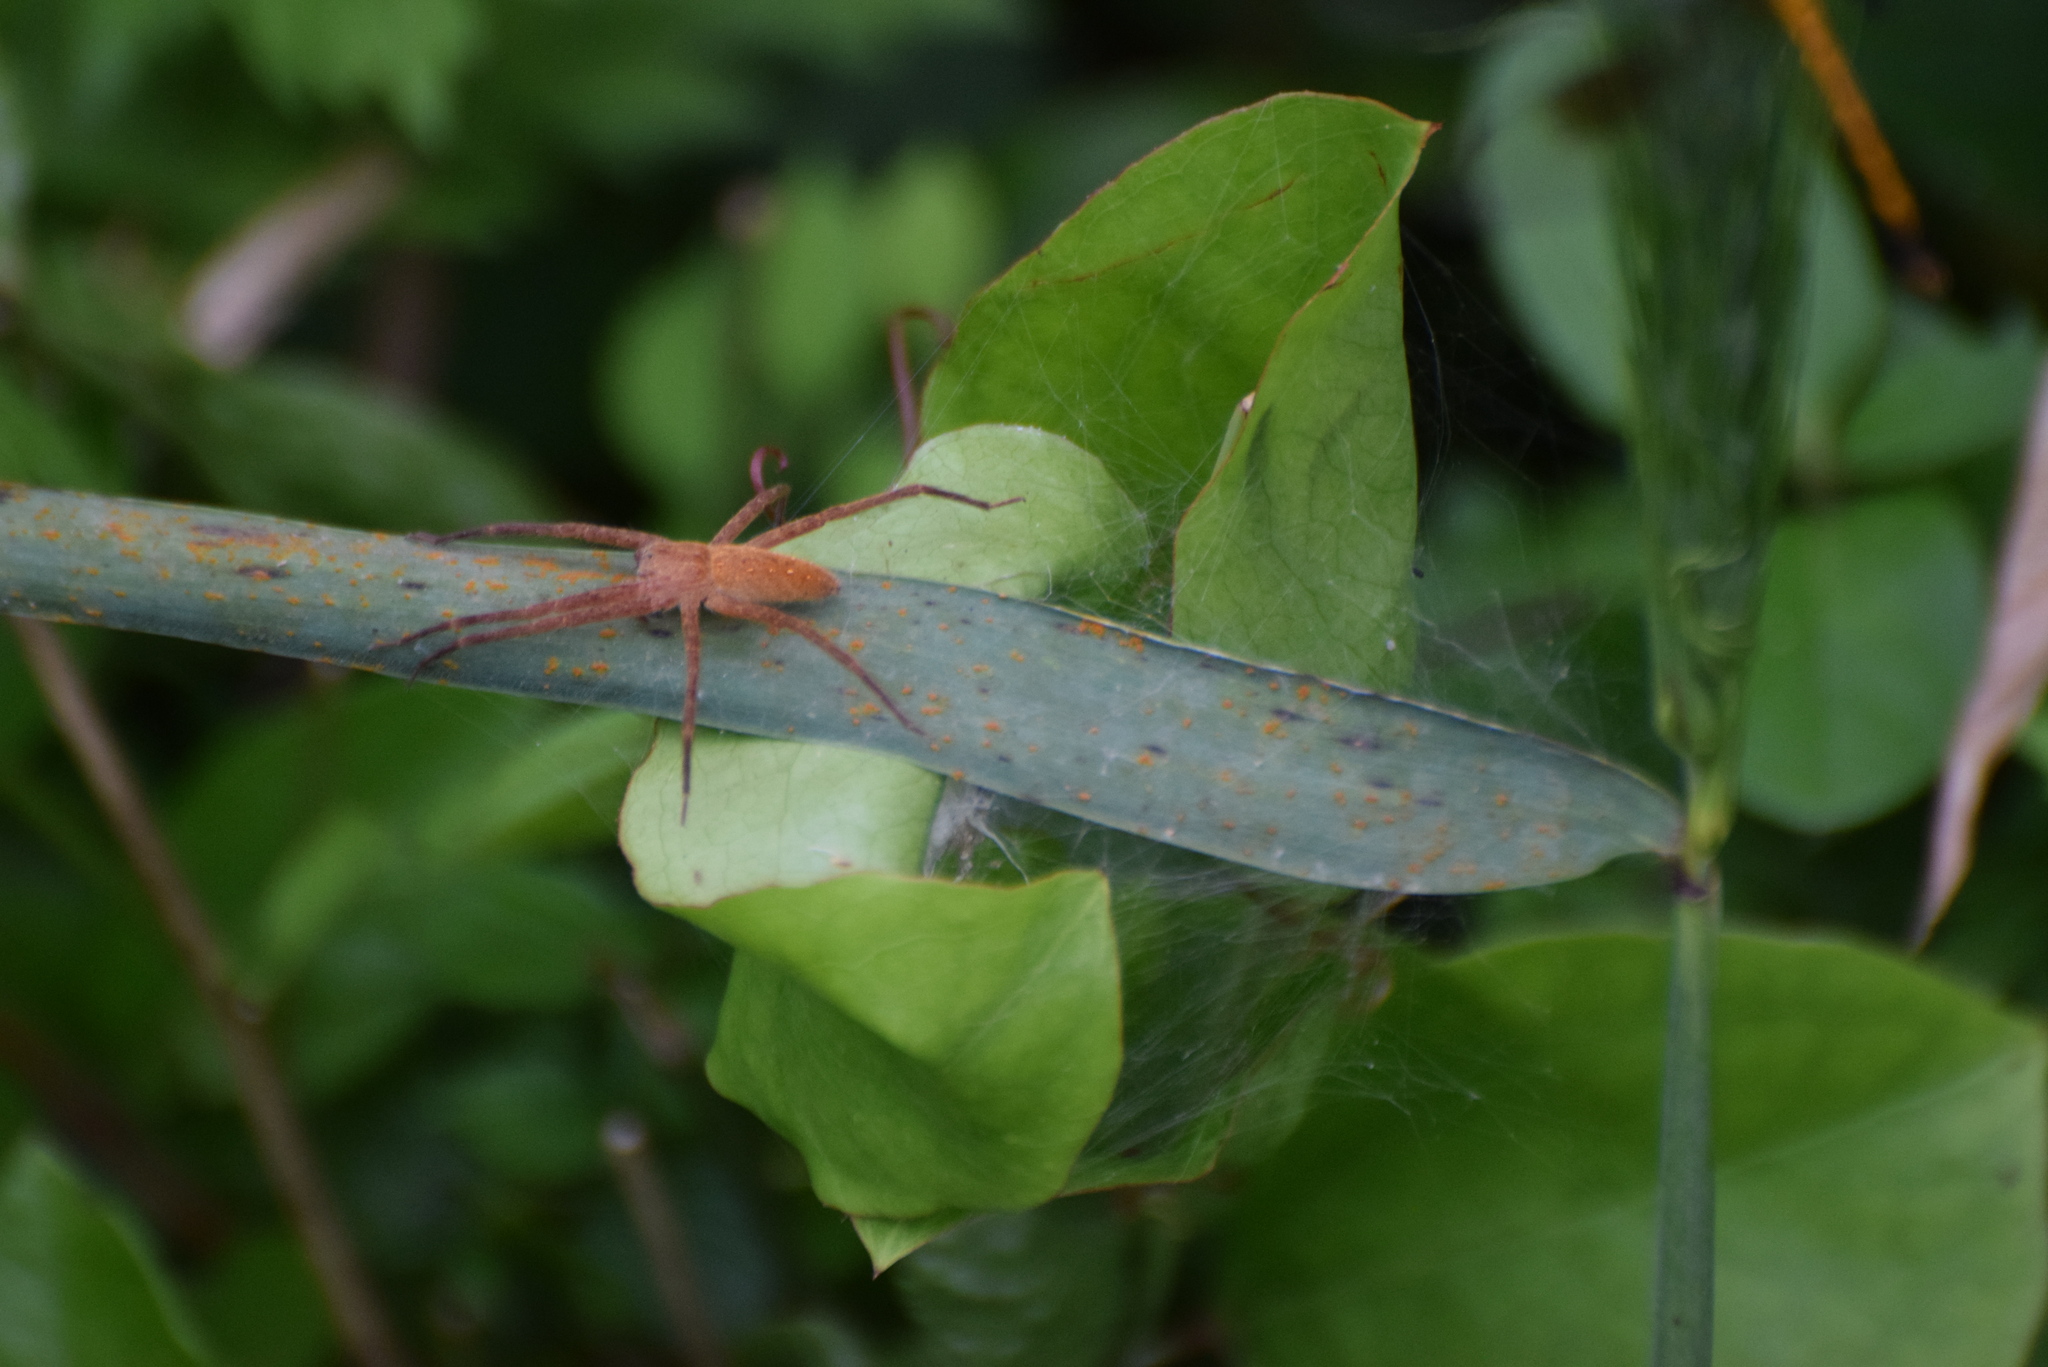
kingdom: Animalia
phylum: Arthropoda
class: Arachnida
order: Araneae
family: Pisauridae
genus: Pisaurina
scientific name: Pisaurina mira
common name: American nursery web spider
